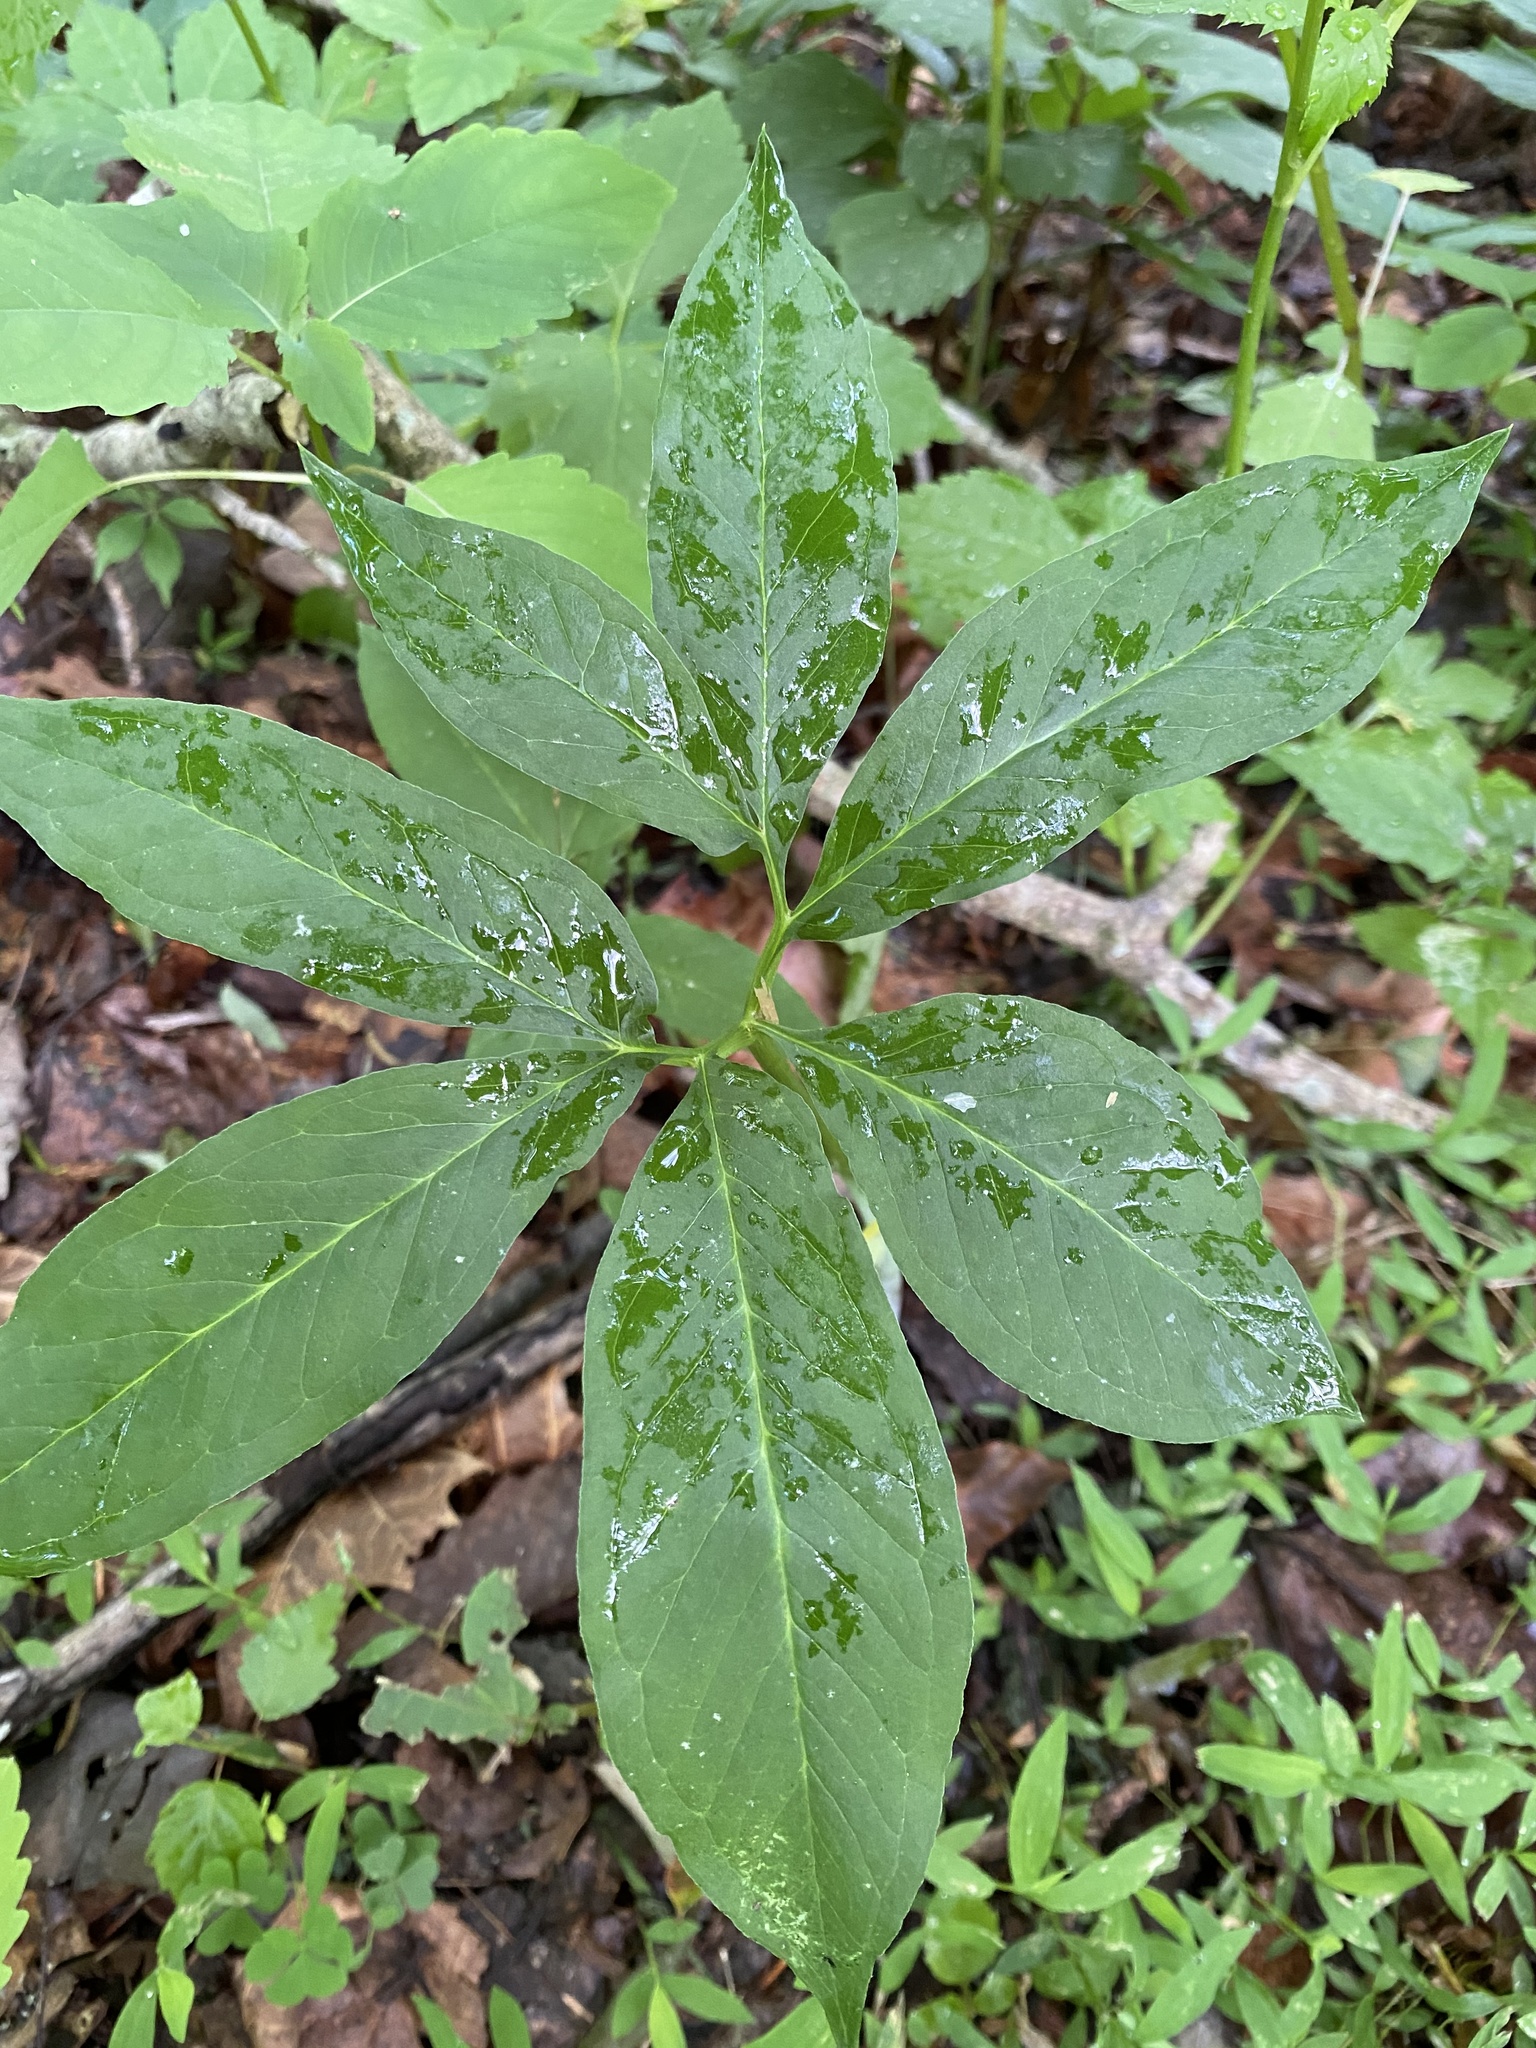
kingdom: Plantae
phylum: Tracheophyta
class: Liliopsida
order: Alismatales
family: Araceae
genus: Arisaema
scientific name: Arisaema dracontium
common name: Dragon-arum
